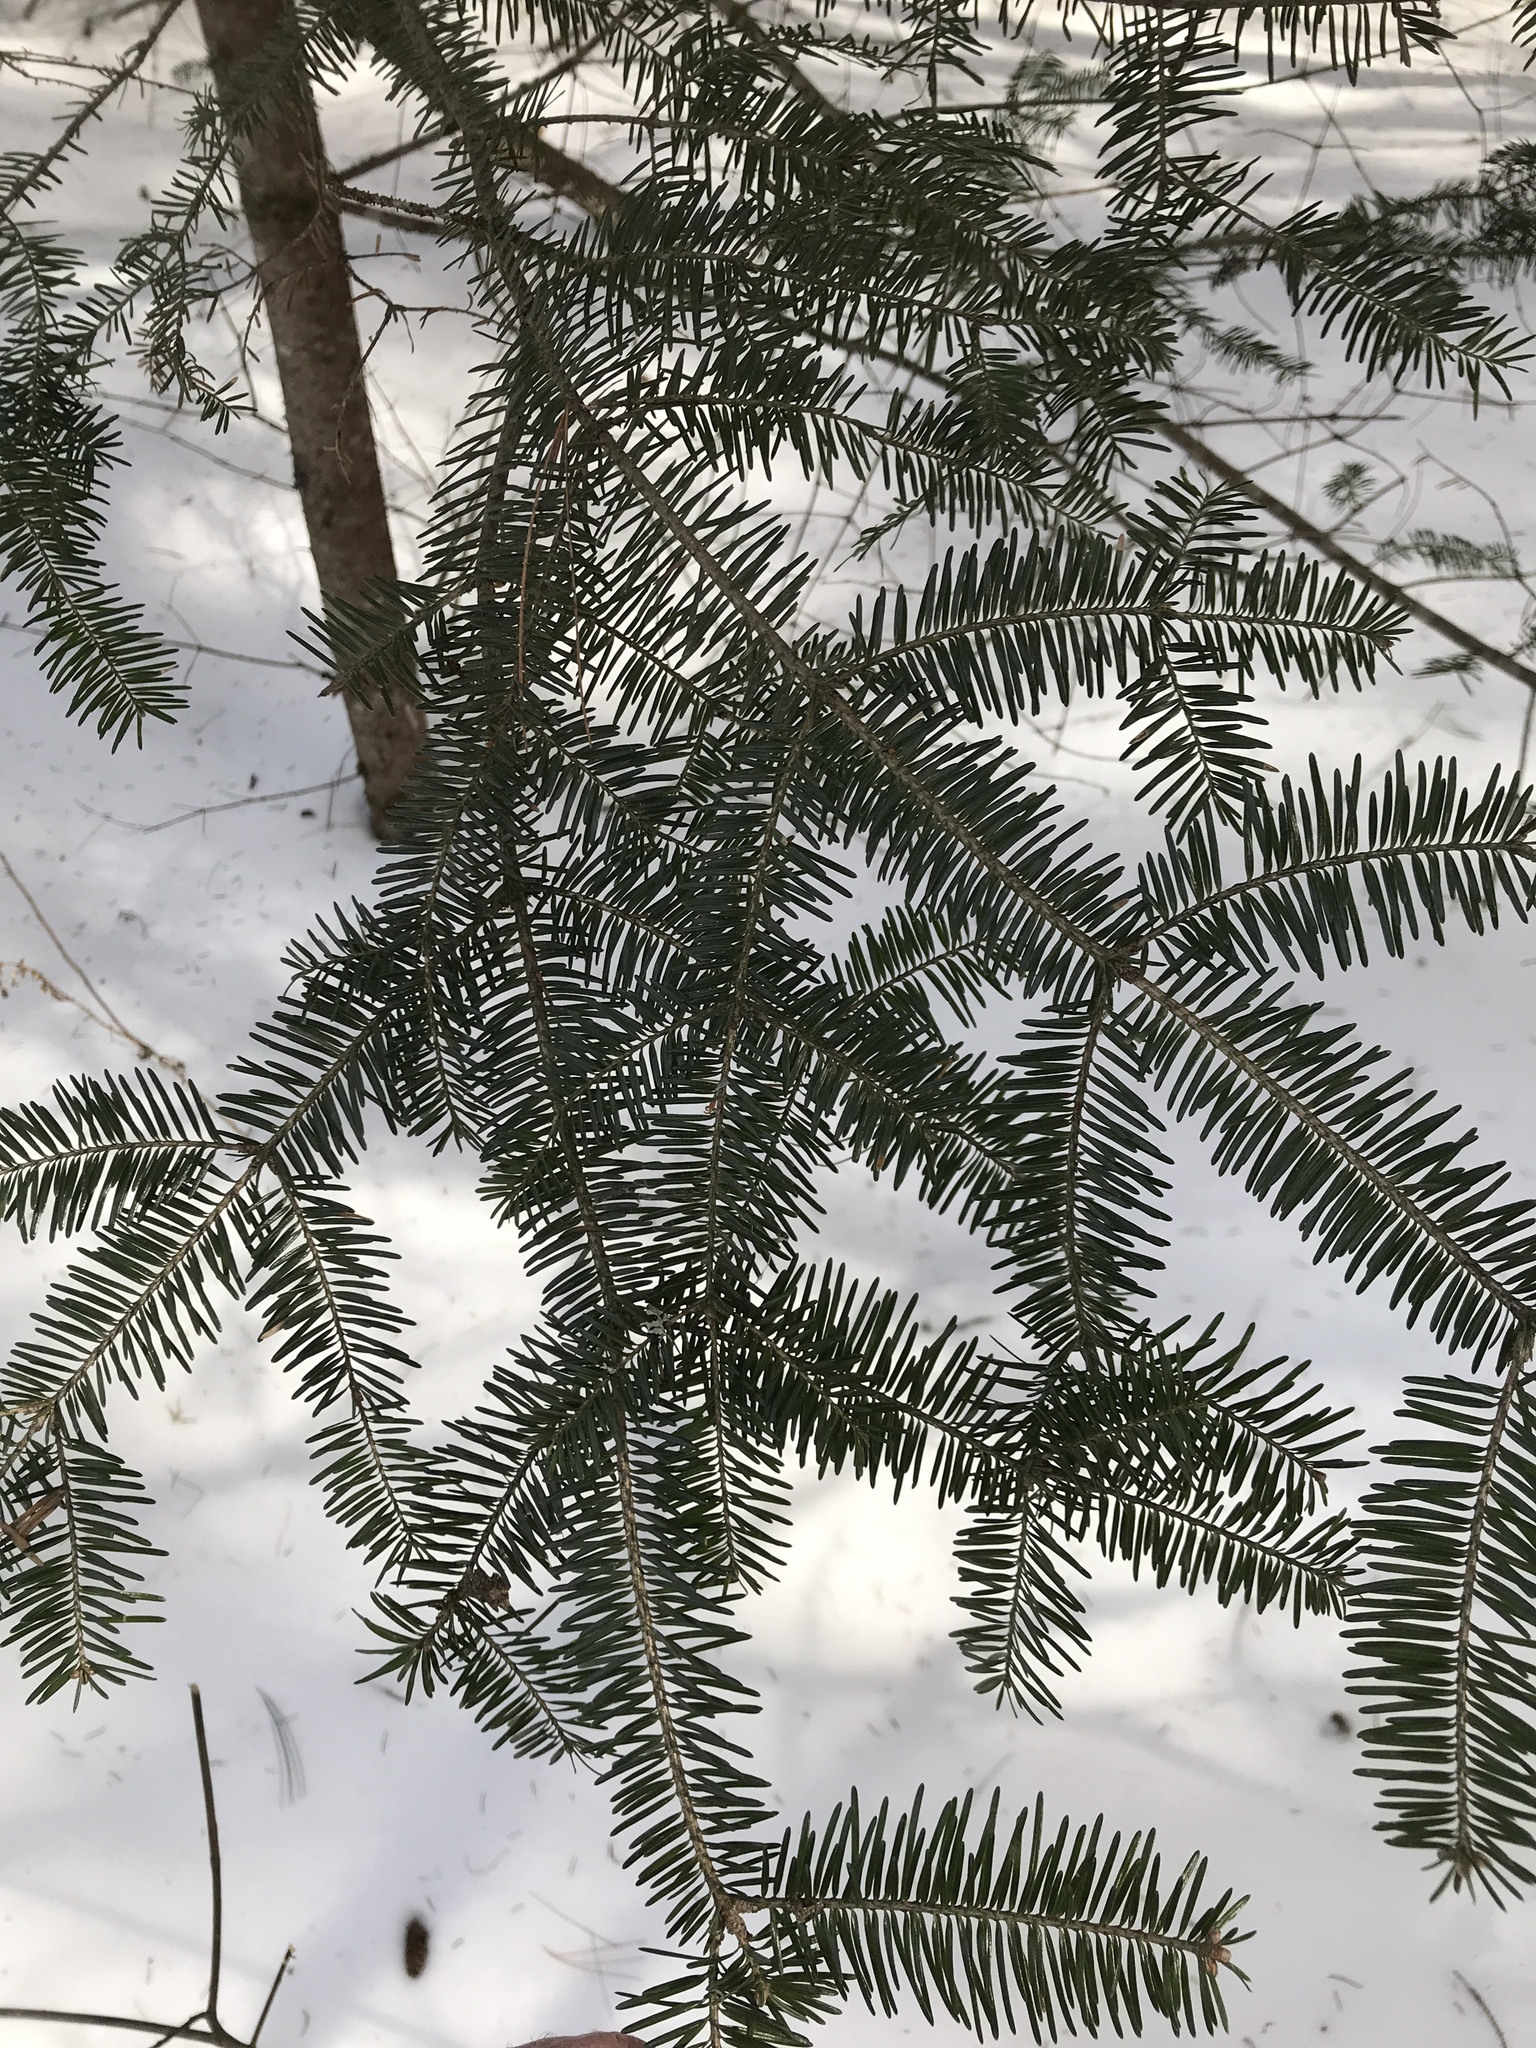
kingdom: Plantae
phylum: Tracheophyta
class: Pinopsida
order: Pinales
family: Pinaceae
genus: Abies
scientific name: Abies balsamea
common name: Balsam fir
